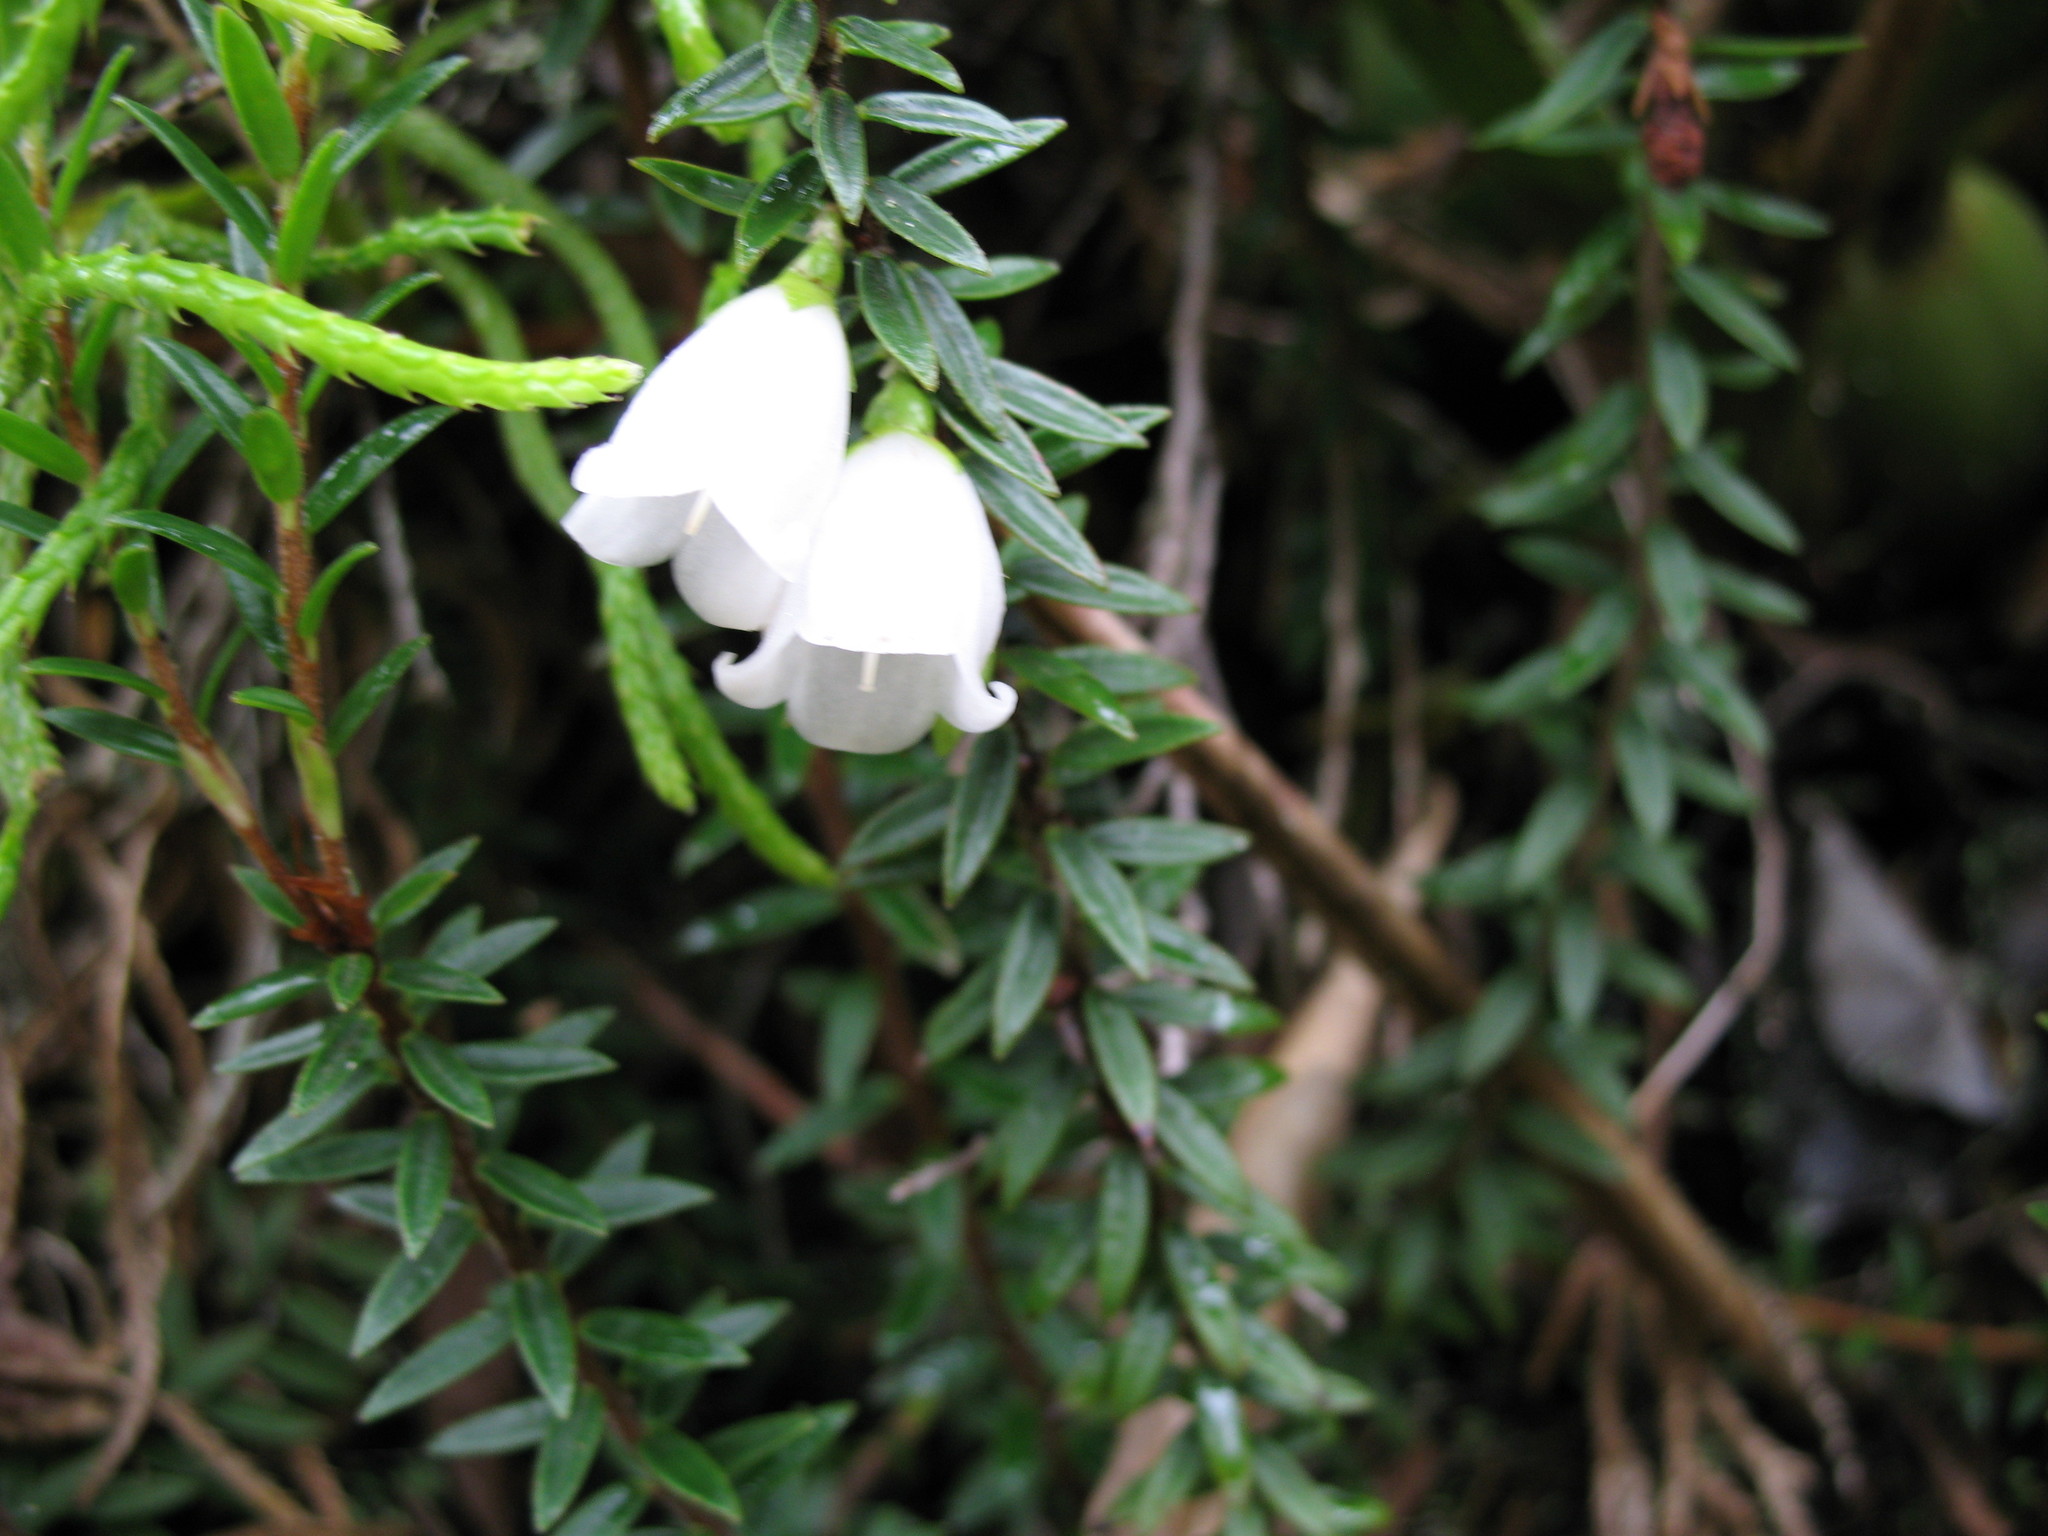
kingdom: Plantae
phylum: Tracheophyta
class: Magnoliopsida
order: Ericales
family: Ericaceae
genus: Disterigma
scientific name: Disterigma pernettyoides
